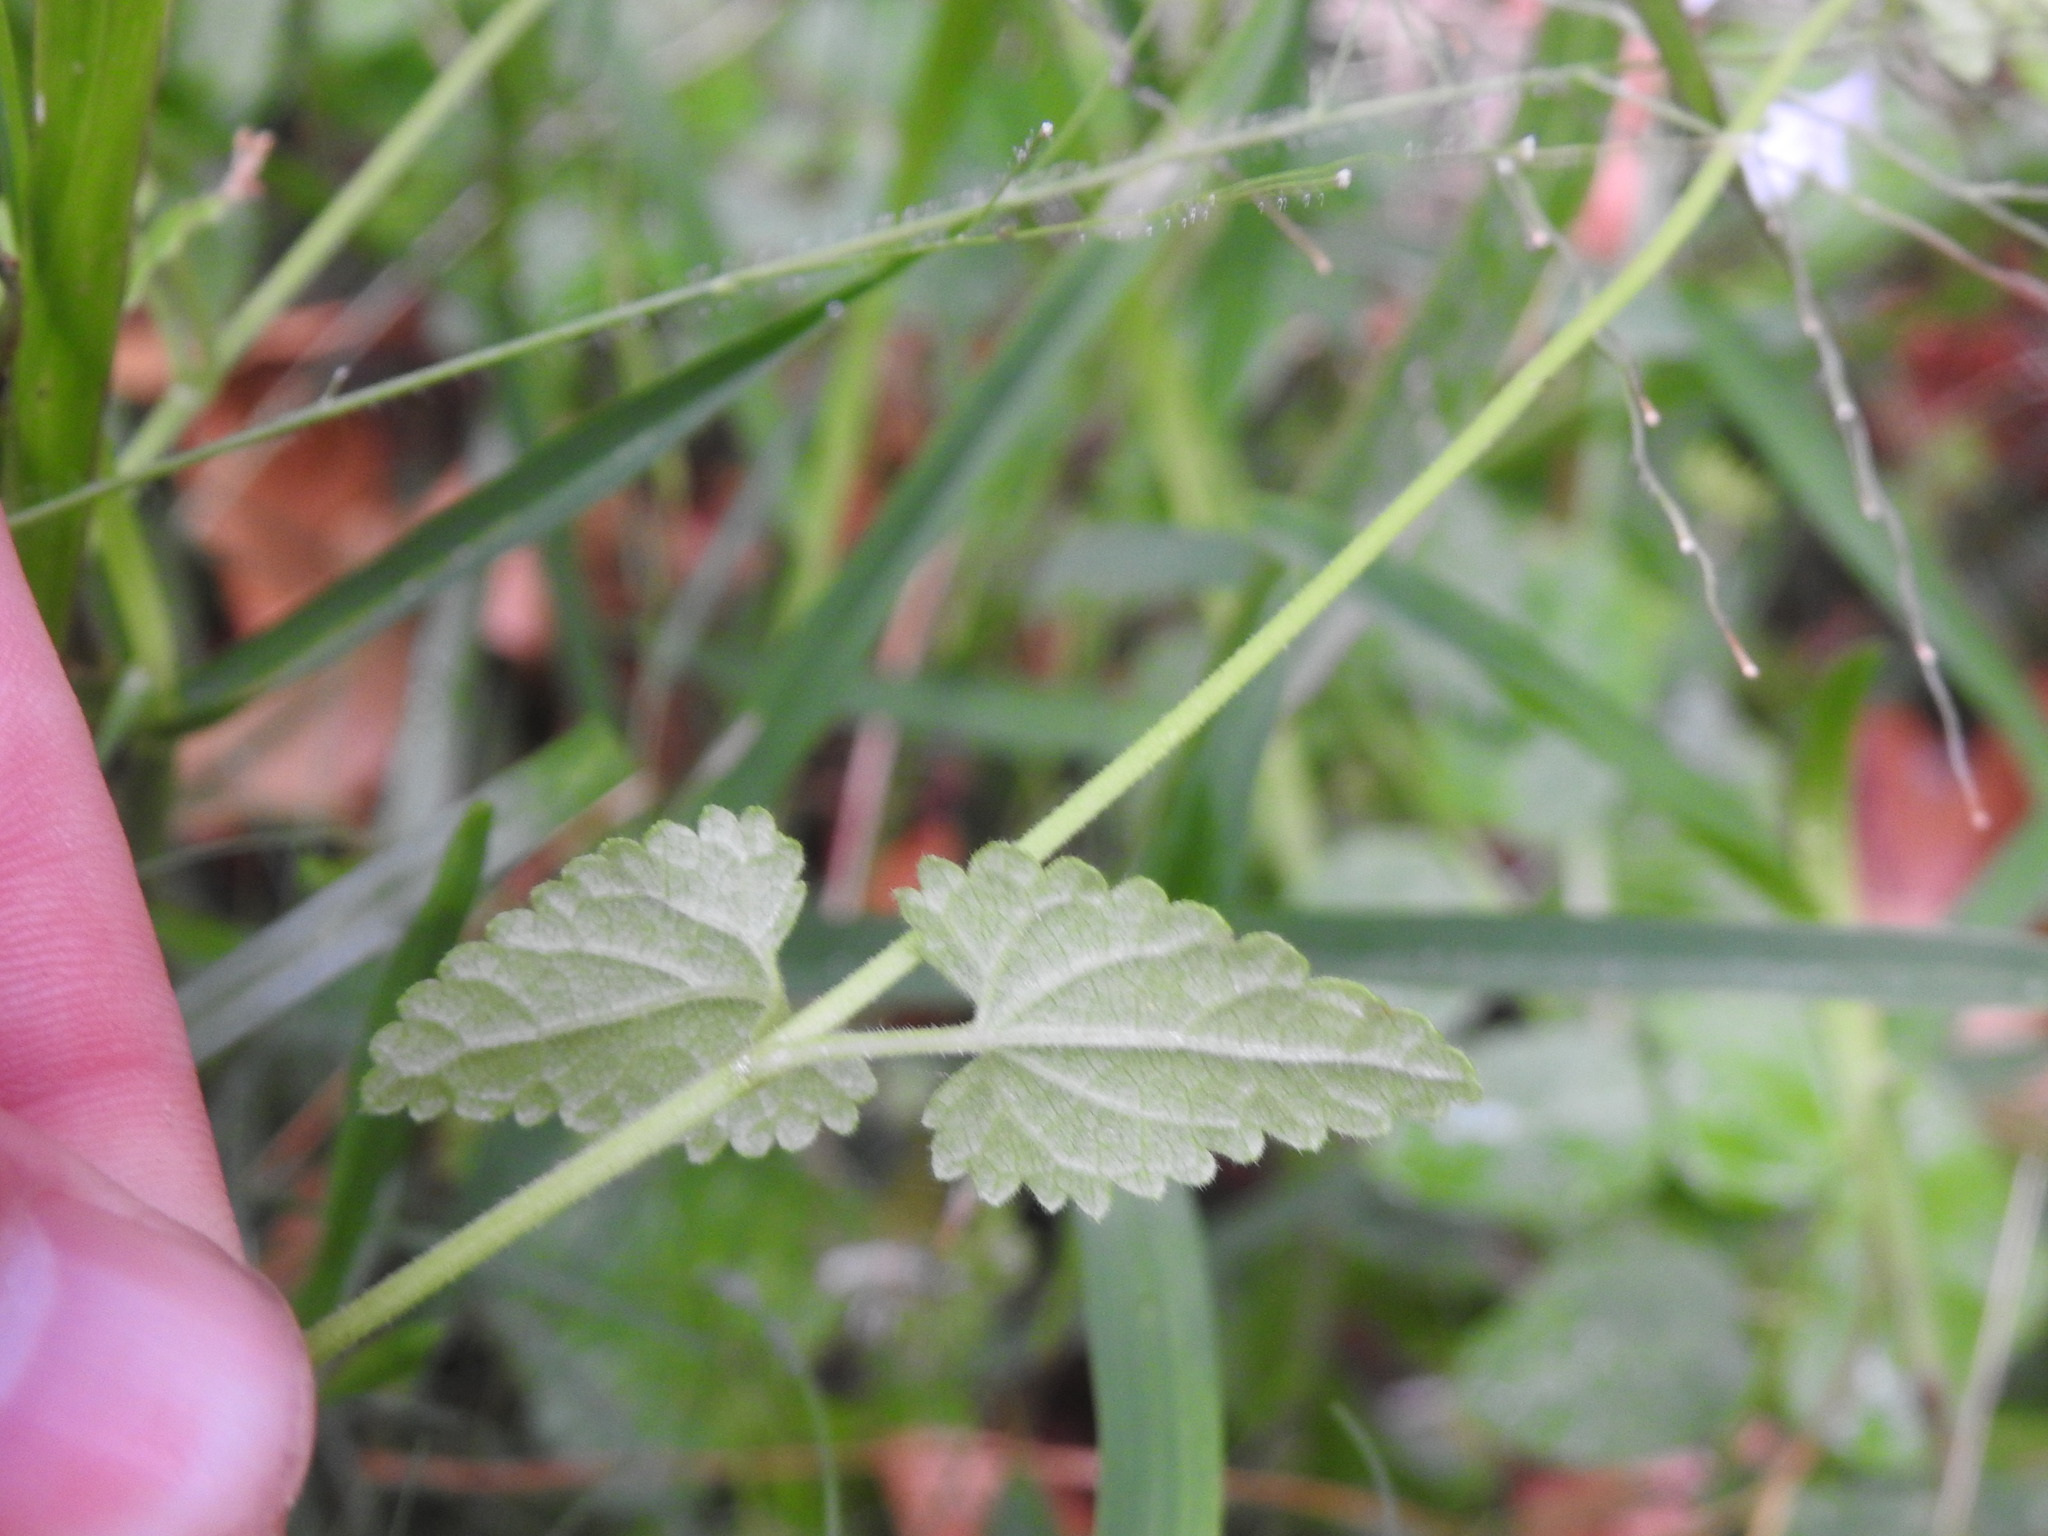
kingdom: Plantae
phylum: Tracheophyta
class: Magnoliopsida
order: Lamiales
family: Lamiaceae
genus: Stachys
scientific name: Stachys aethiopica
